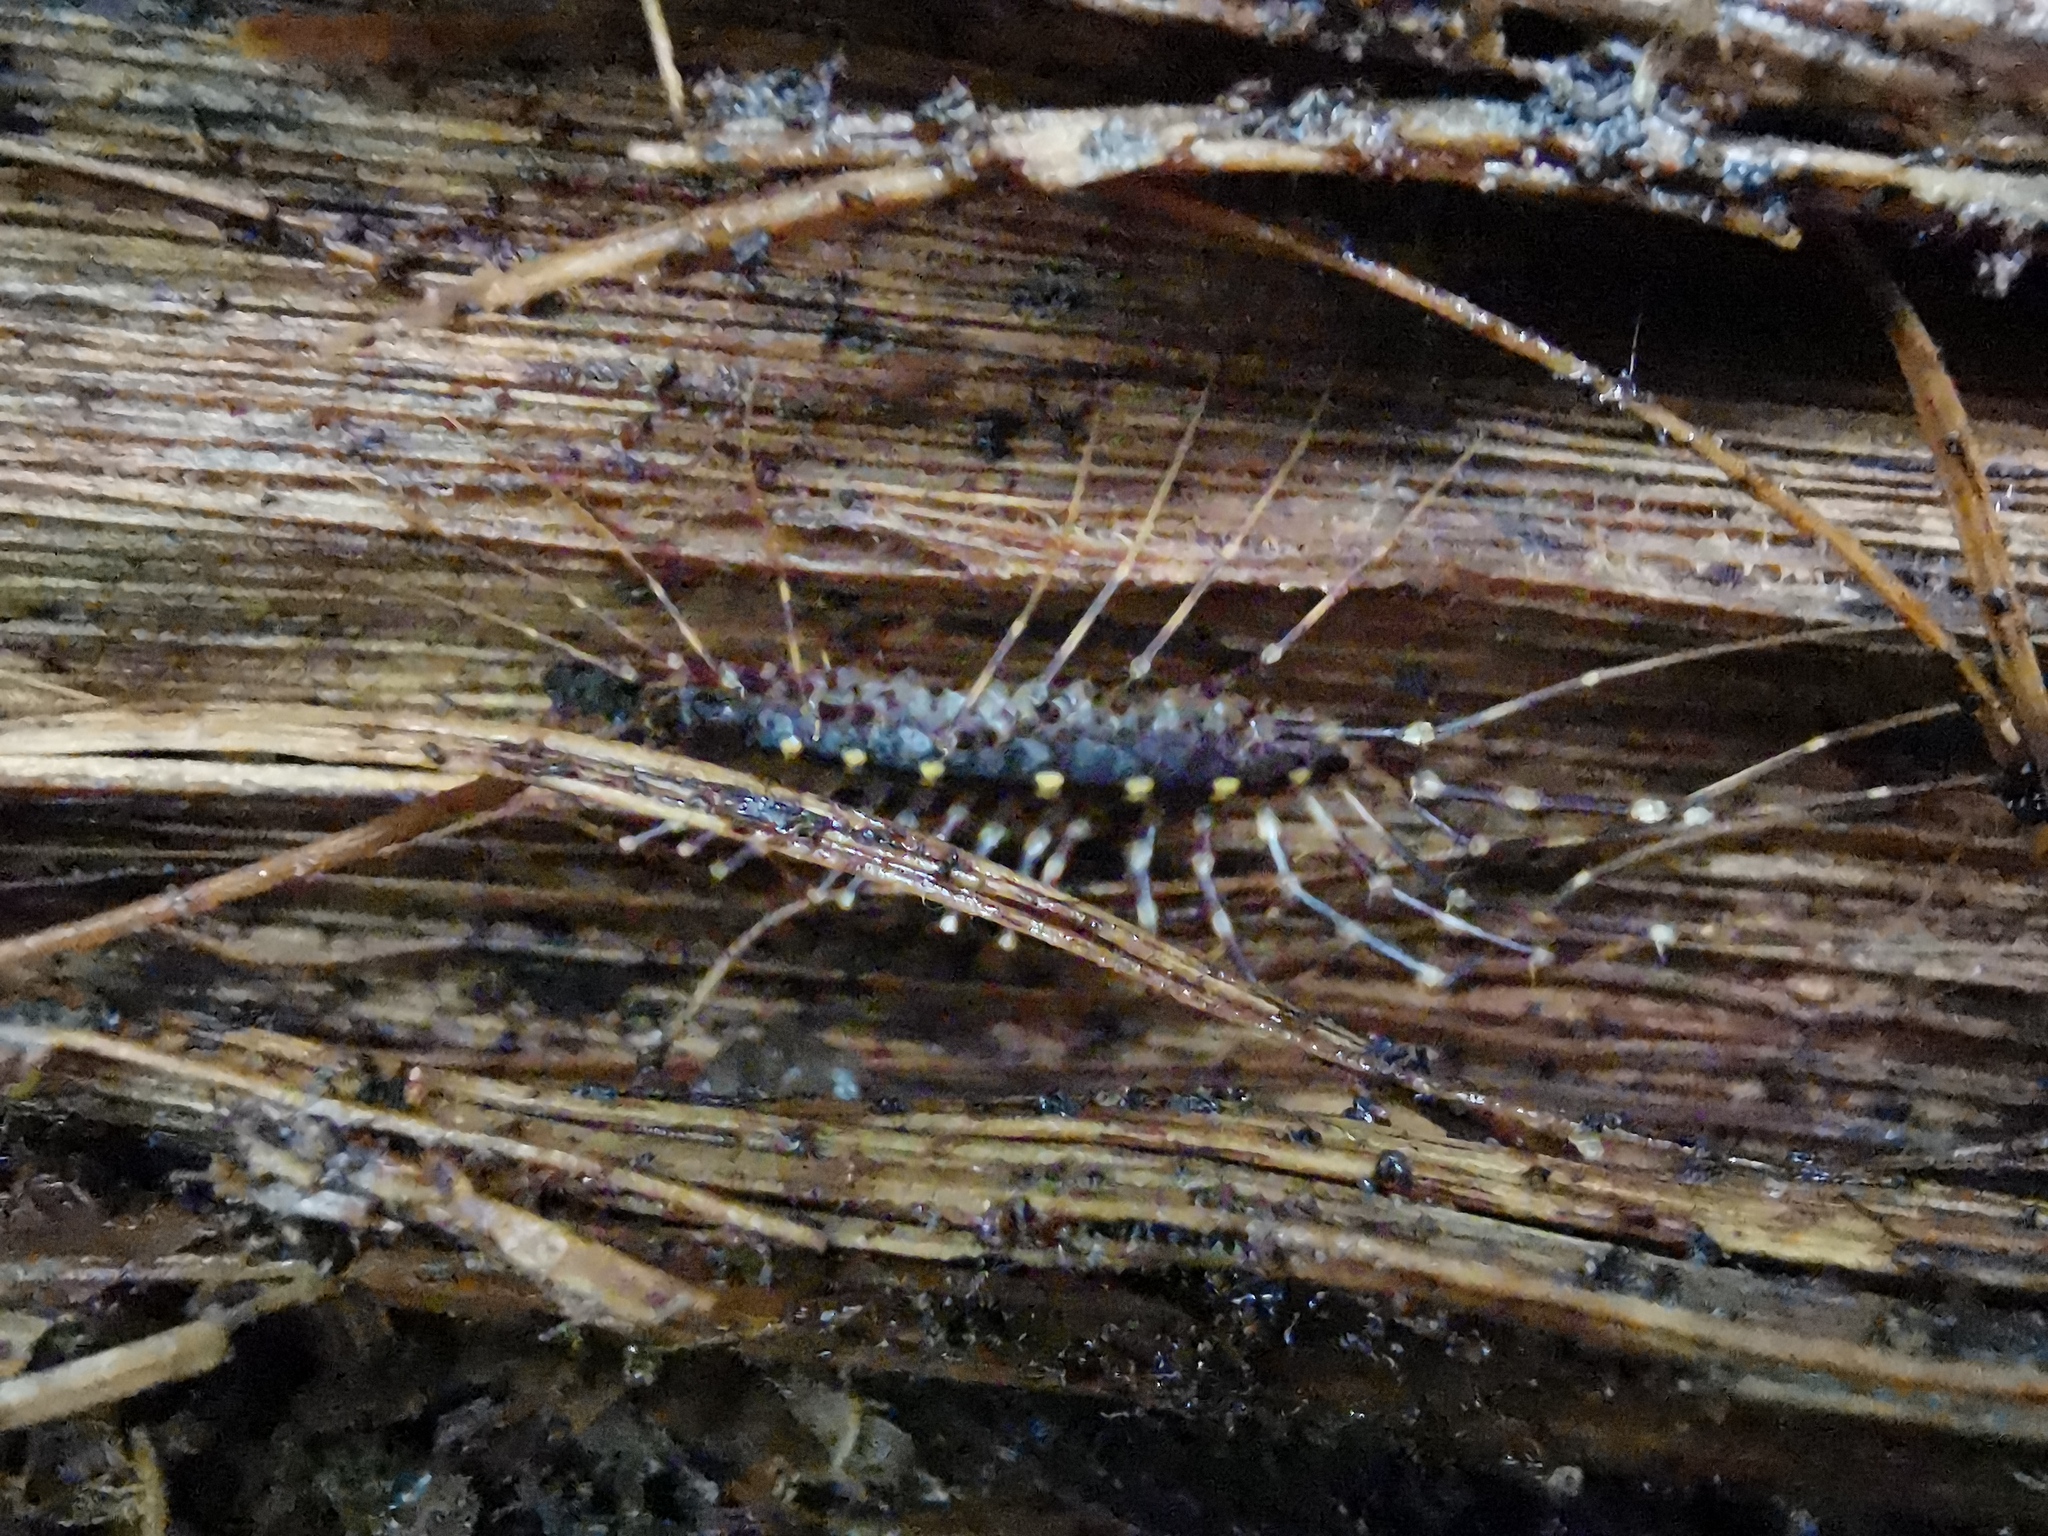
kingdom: Animalia
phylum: Arthropoda
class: Chilopoda
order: Scutigeromorpha
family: Scutigeridae
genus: Seychellonema
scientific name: Seychellonema gerlachi
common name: Seychelles long-legged centipede
